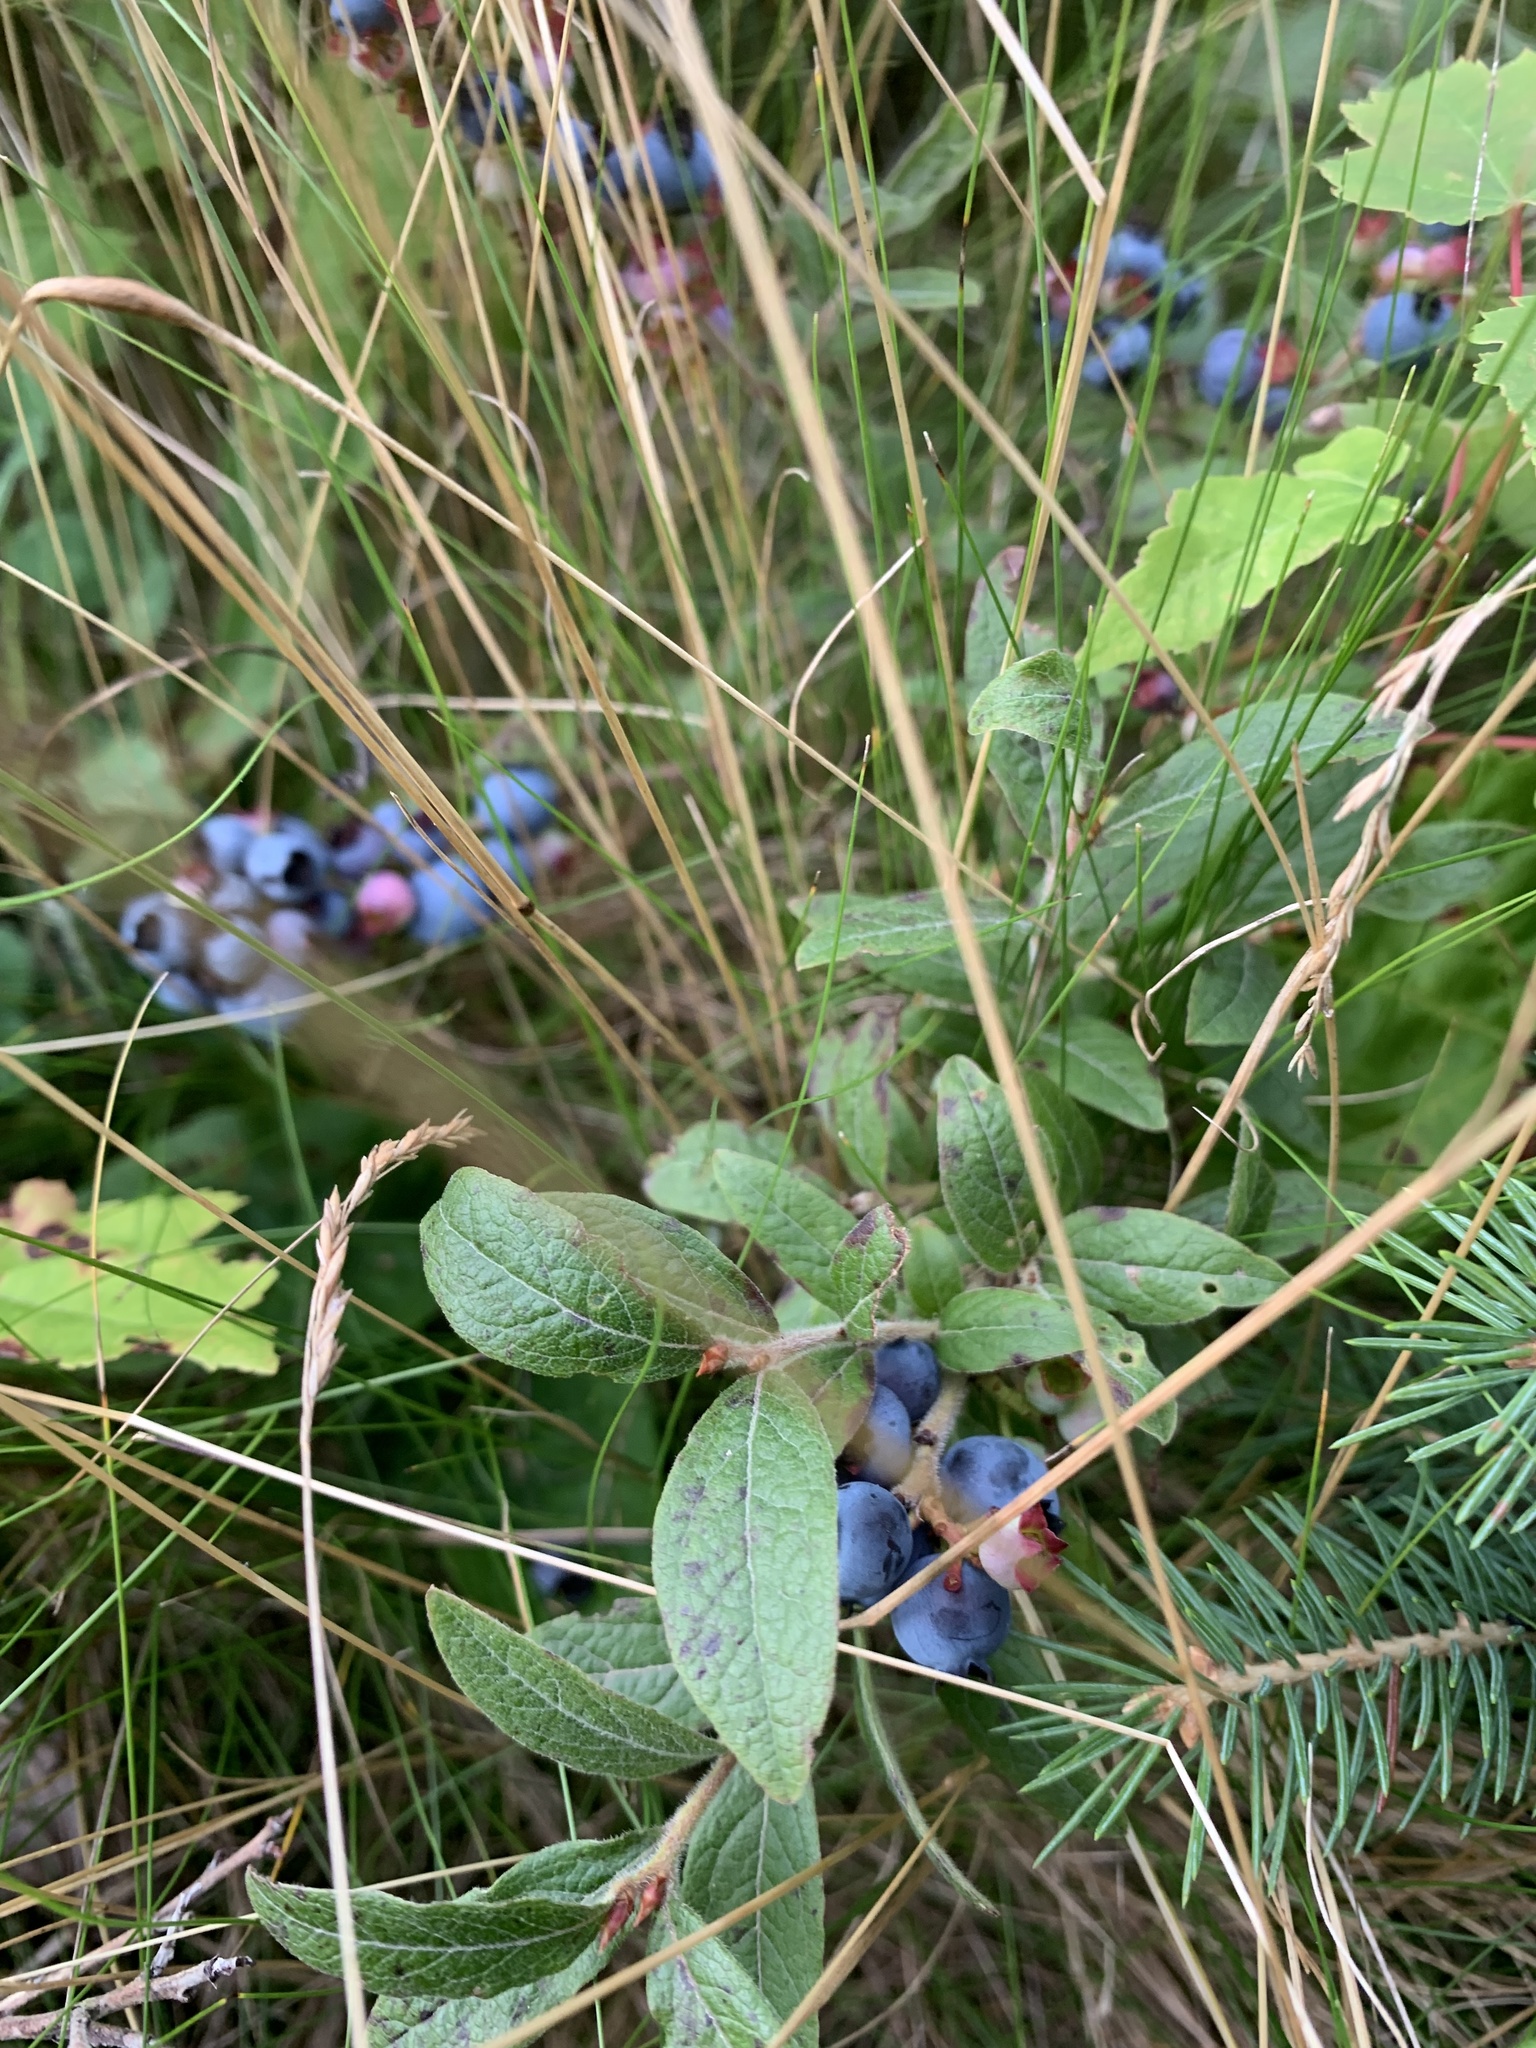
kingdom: Plantae
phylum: Tracheophyta
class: Magnoliopsida
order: Ericales
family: Ericaceae
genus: Vaccinium
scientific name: Vaccinium myrtilloides
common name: Canada blueberry
